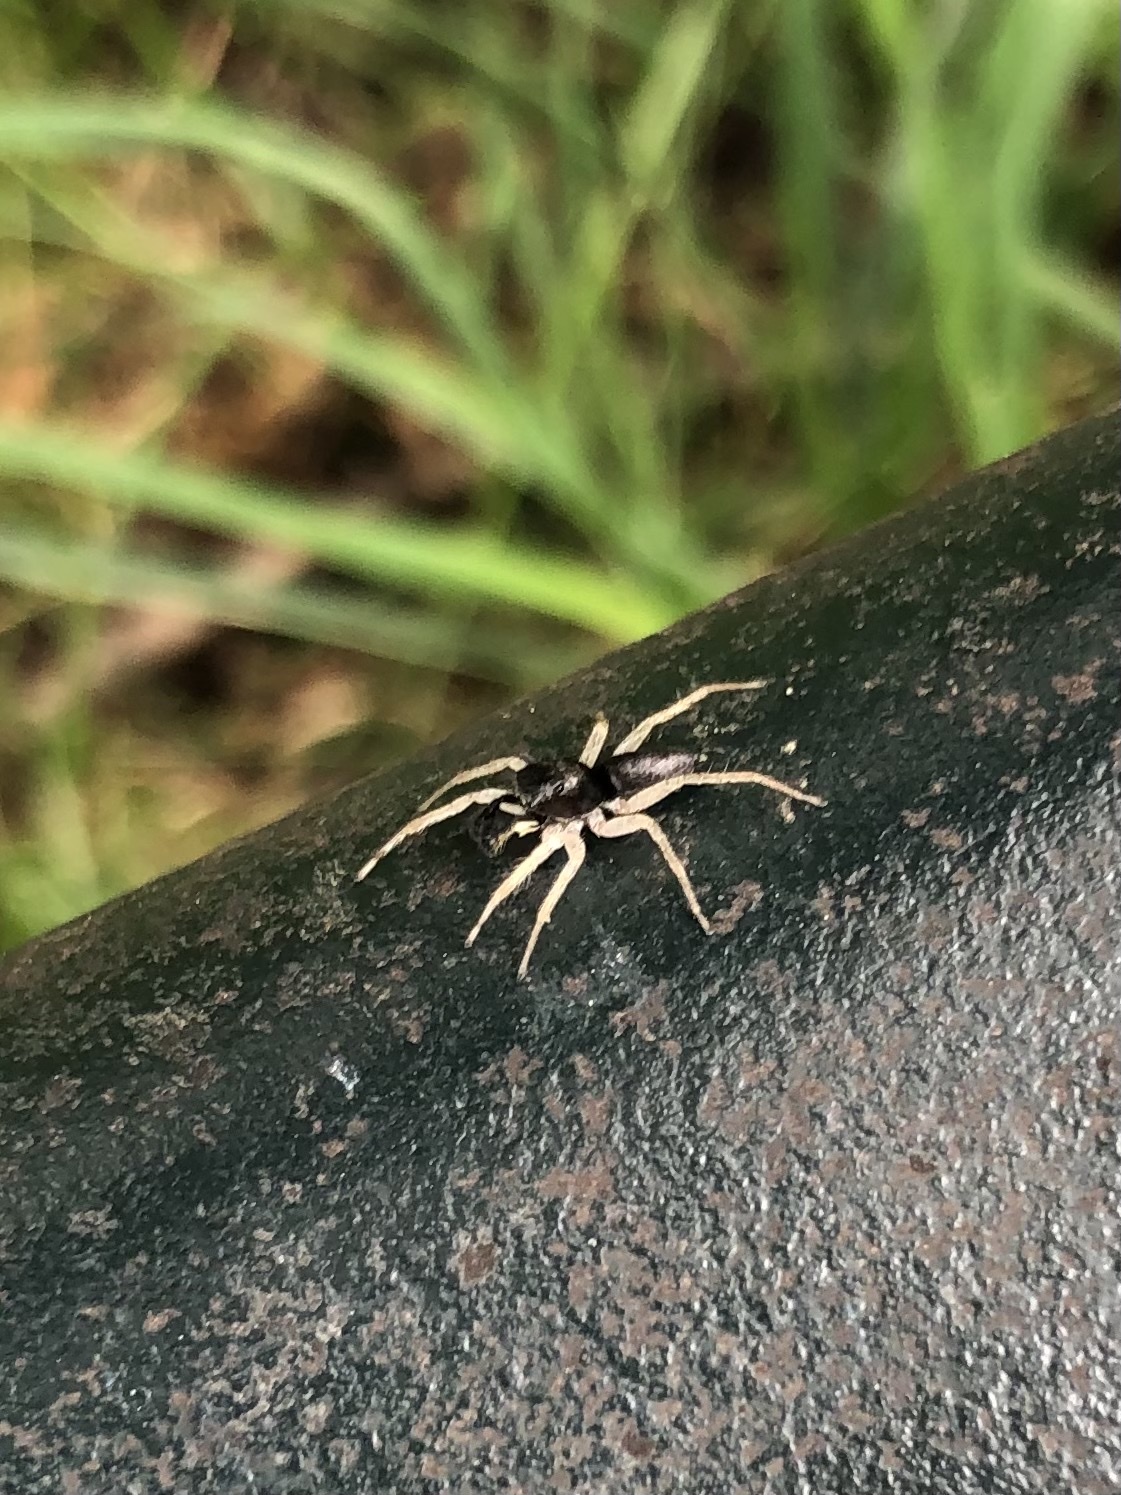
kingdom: Animalia
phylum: Arthropoda
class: Arachnida
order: Araneae
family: Salticidae
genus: Maevia
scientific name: Maevia inclemens
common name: Dimorphic jumper
